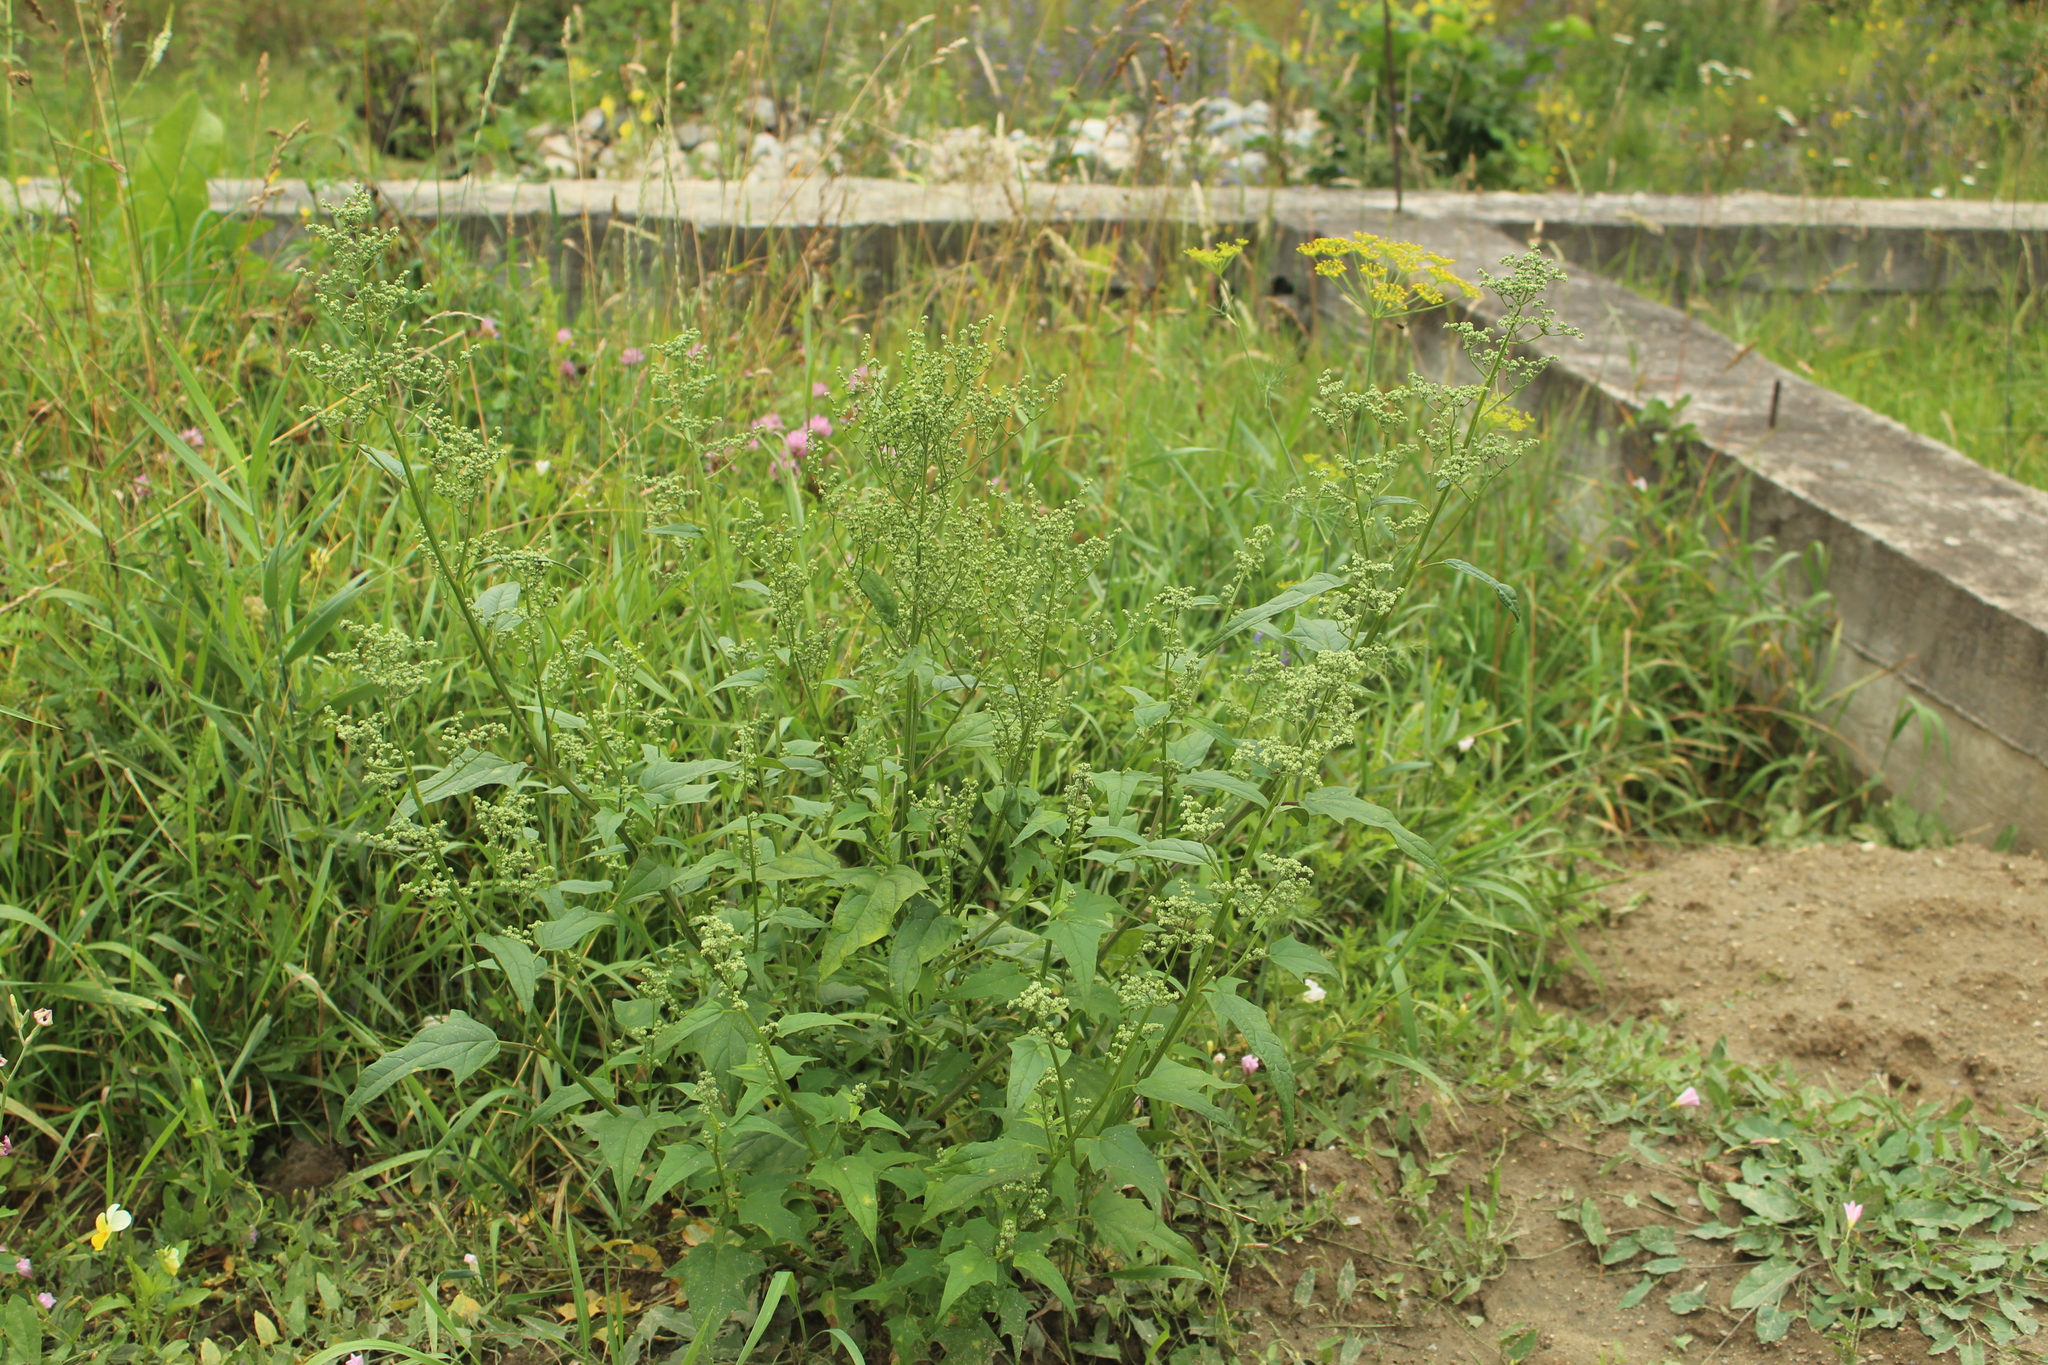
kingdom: Plantae
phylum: Tracheophyta
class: Magnoliopsida
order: Caryophyllales
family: Amaranthaceae
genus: Chenopodiastrum
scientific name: Chenopodiastrum hybridum
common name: Mapleleaf goosefoot
